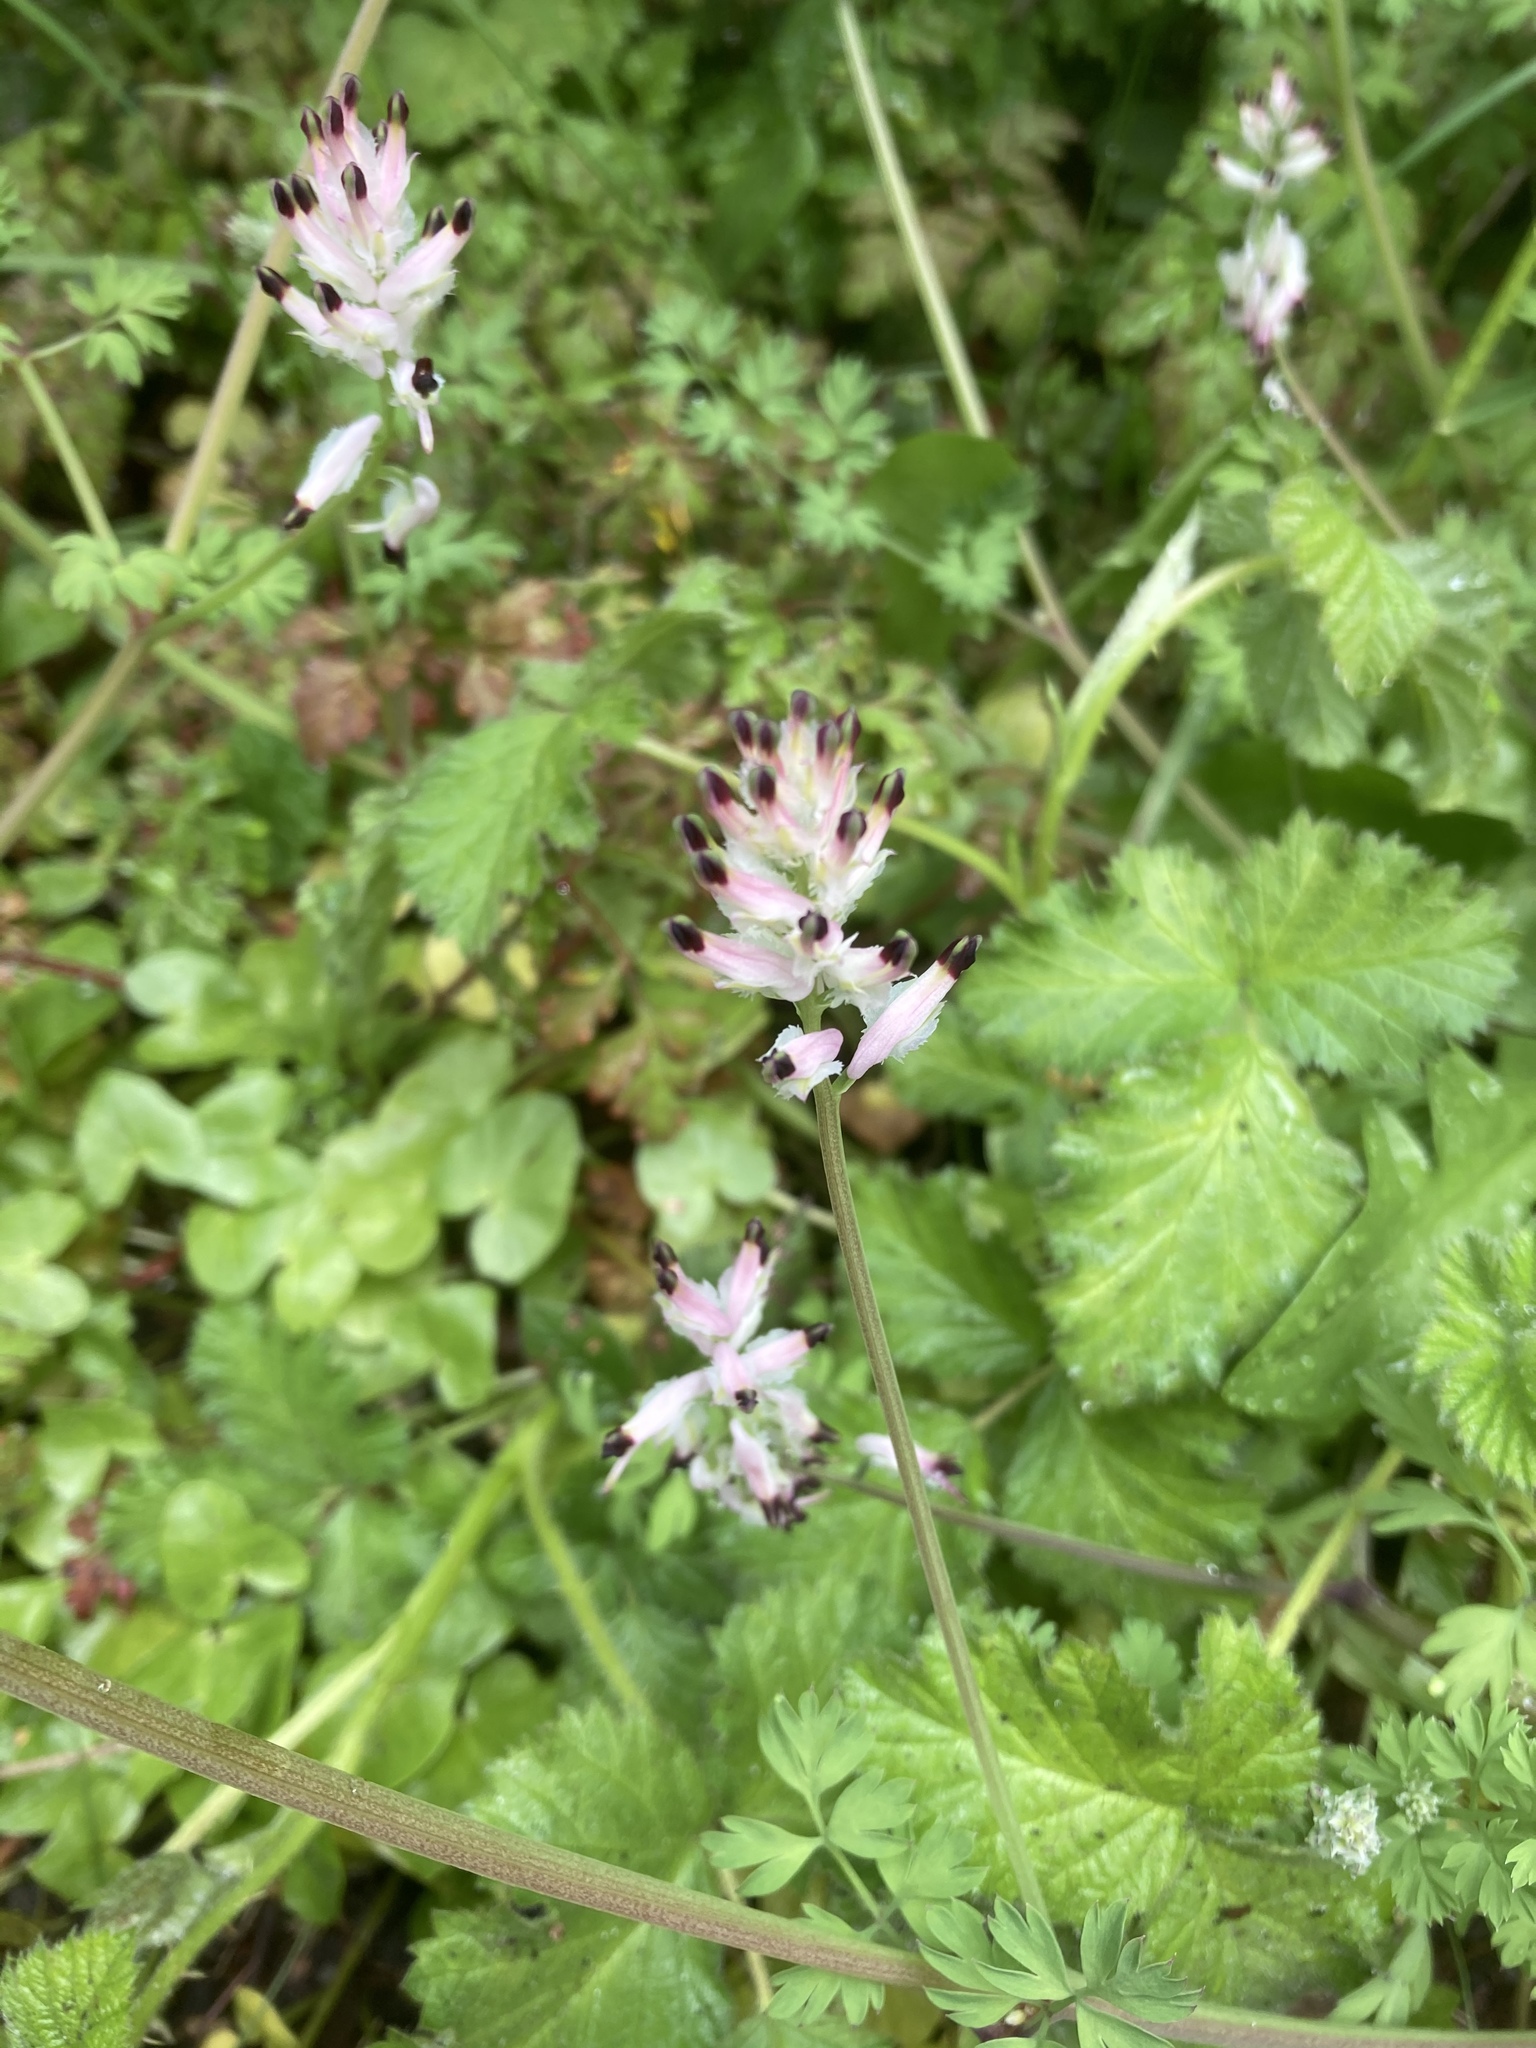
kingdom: Plantae
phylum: Tracheophyta
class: Magnoliopsida
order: Ranunculales
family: Papaveraceae
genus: Fumaria
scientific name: Fumaria capreolata
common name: White ramping-fumitory
